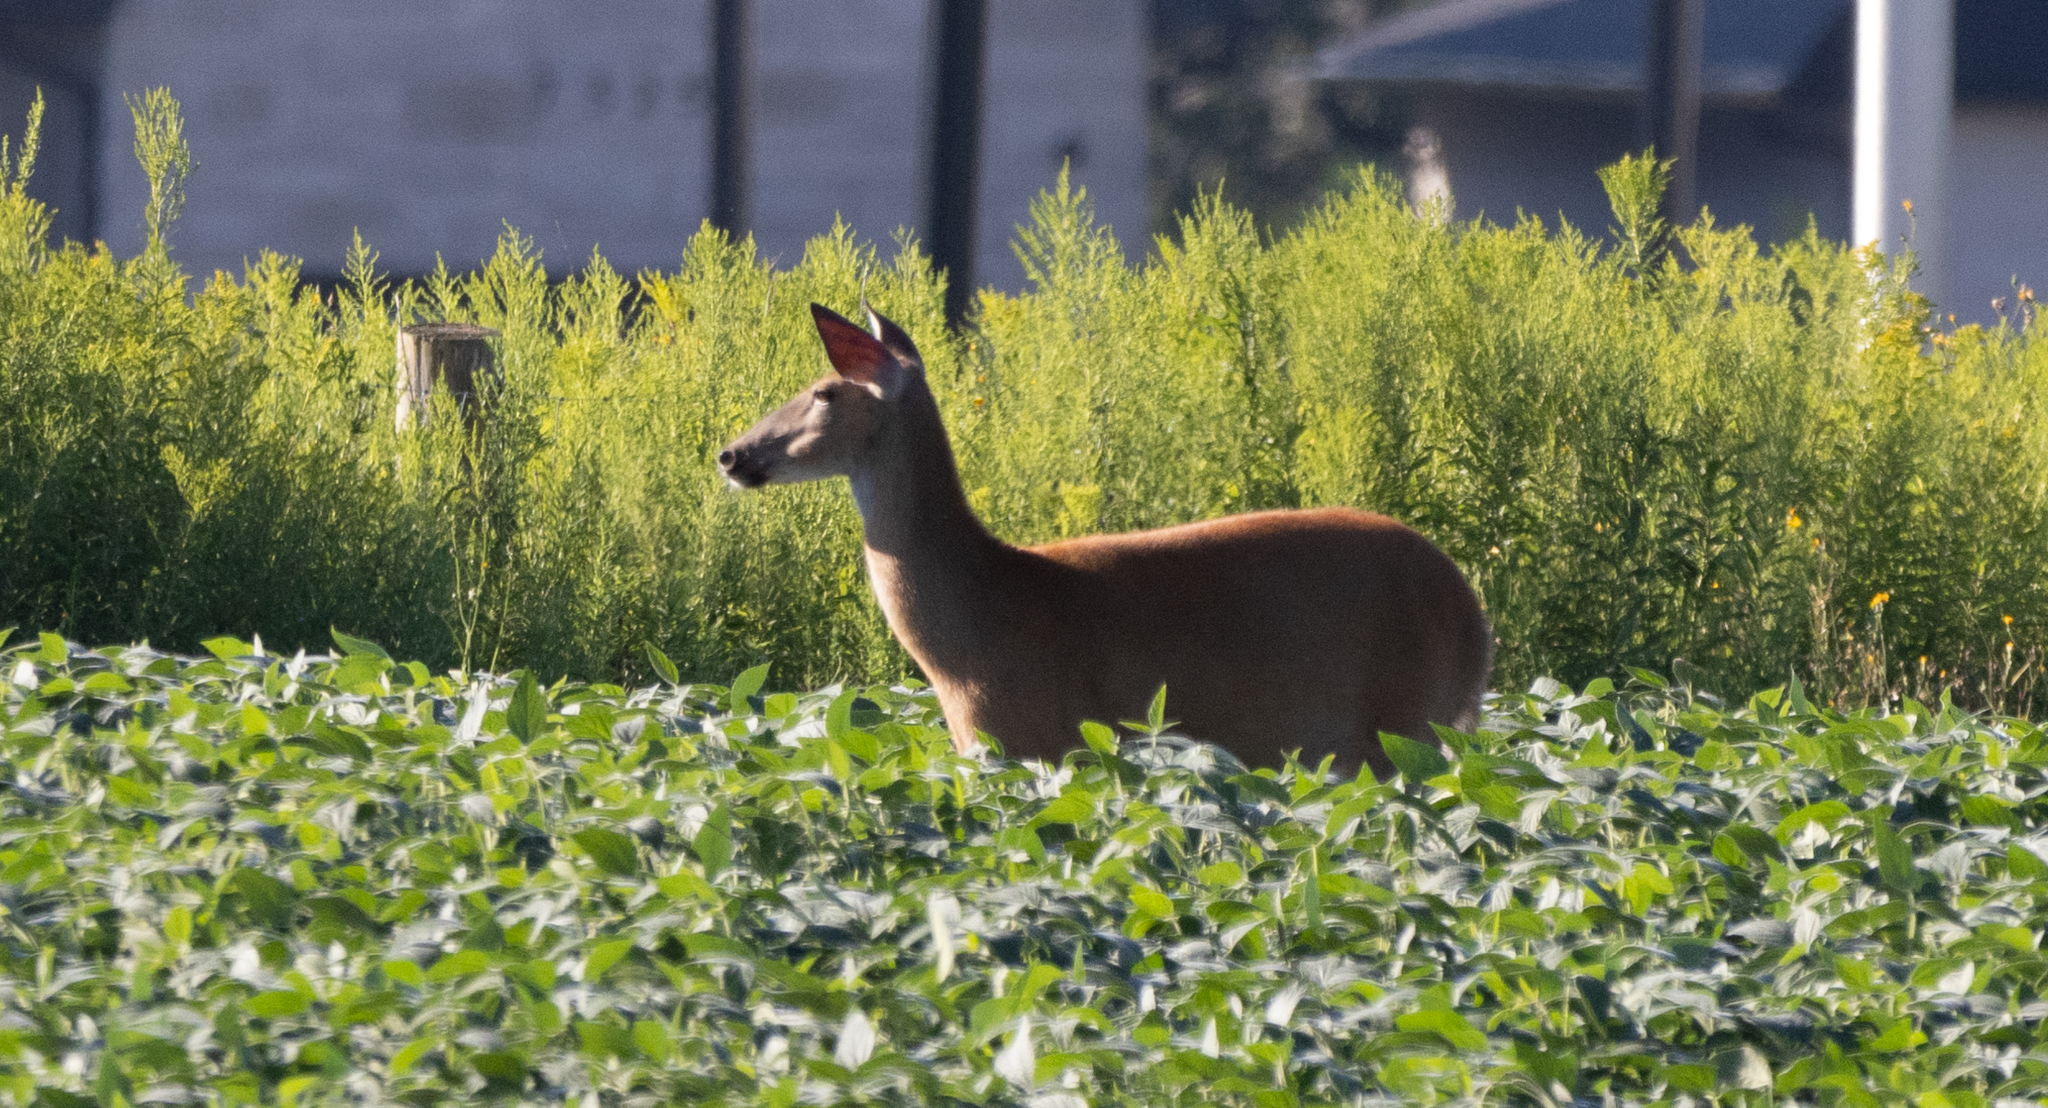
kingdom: Animalia
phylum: Chordata
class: Mammalia
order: Artiodactyla
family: Cervidae
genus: Odocoileus
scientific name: Odocoileus virginianus
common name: White-tailed deer
